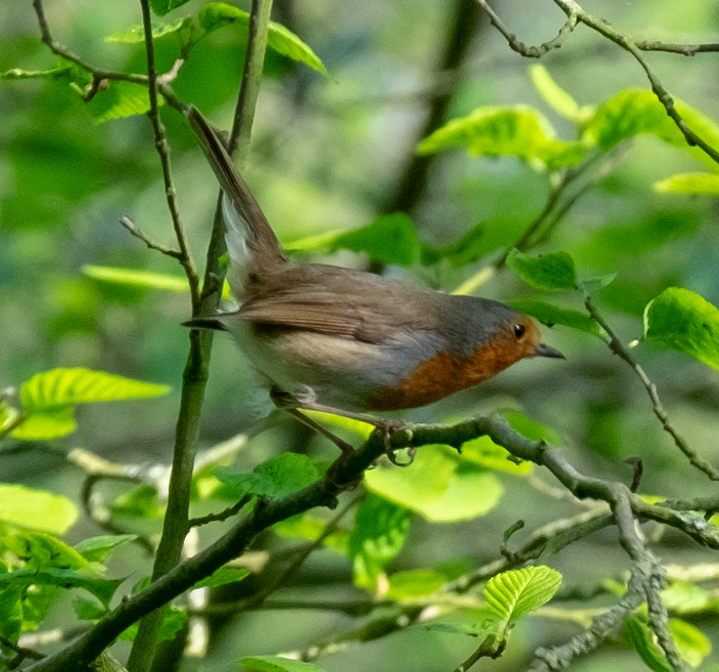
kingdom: Animalia
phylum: Chordata
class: Aves
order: Passeriformes
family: Muscicapidae
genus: Erithacus
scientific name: Erithacus rubecula
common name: European robin
